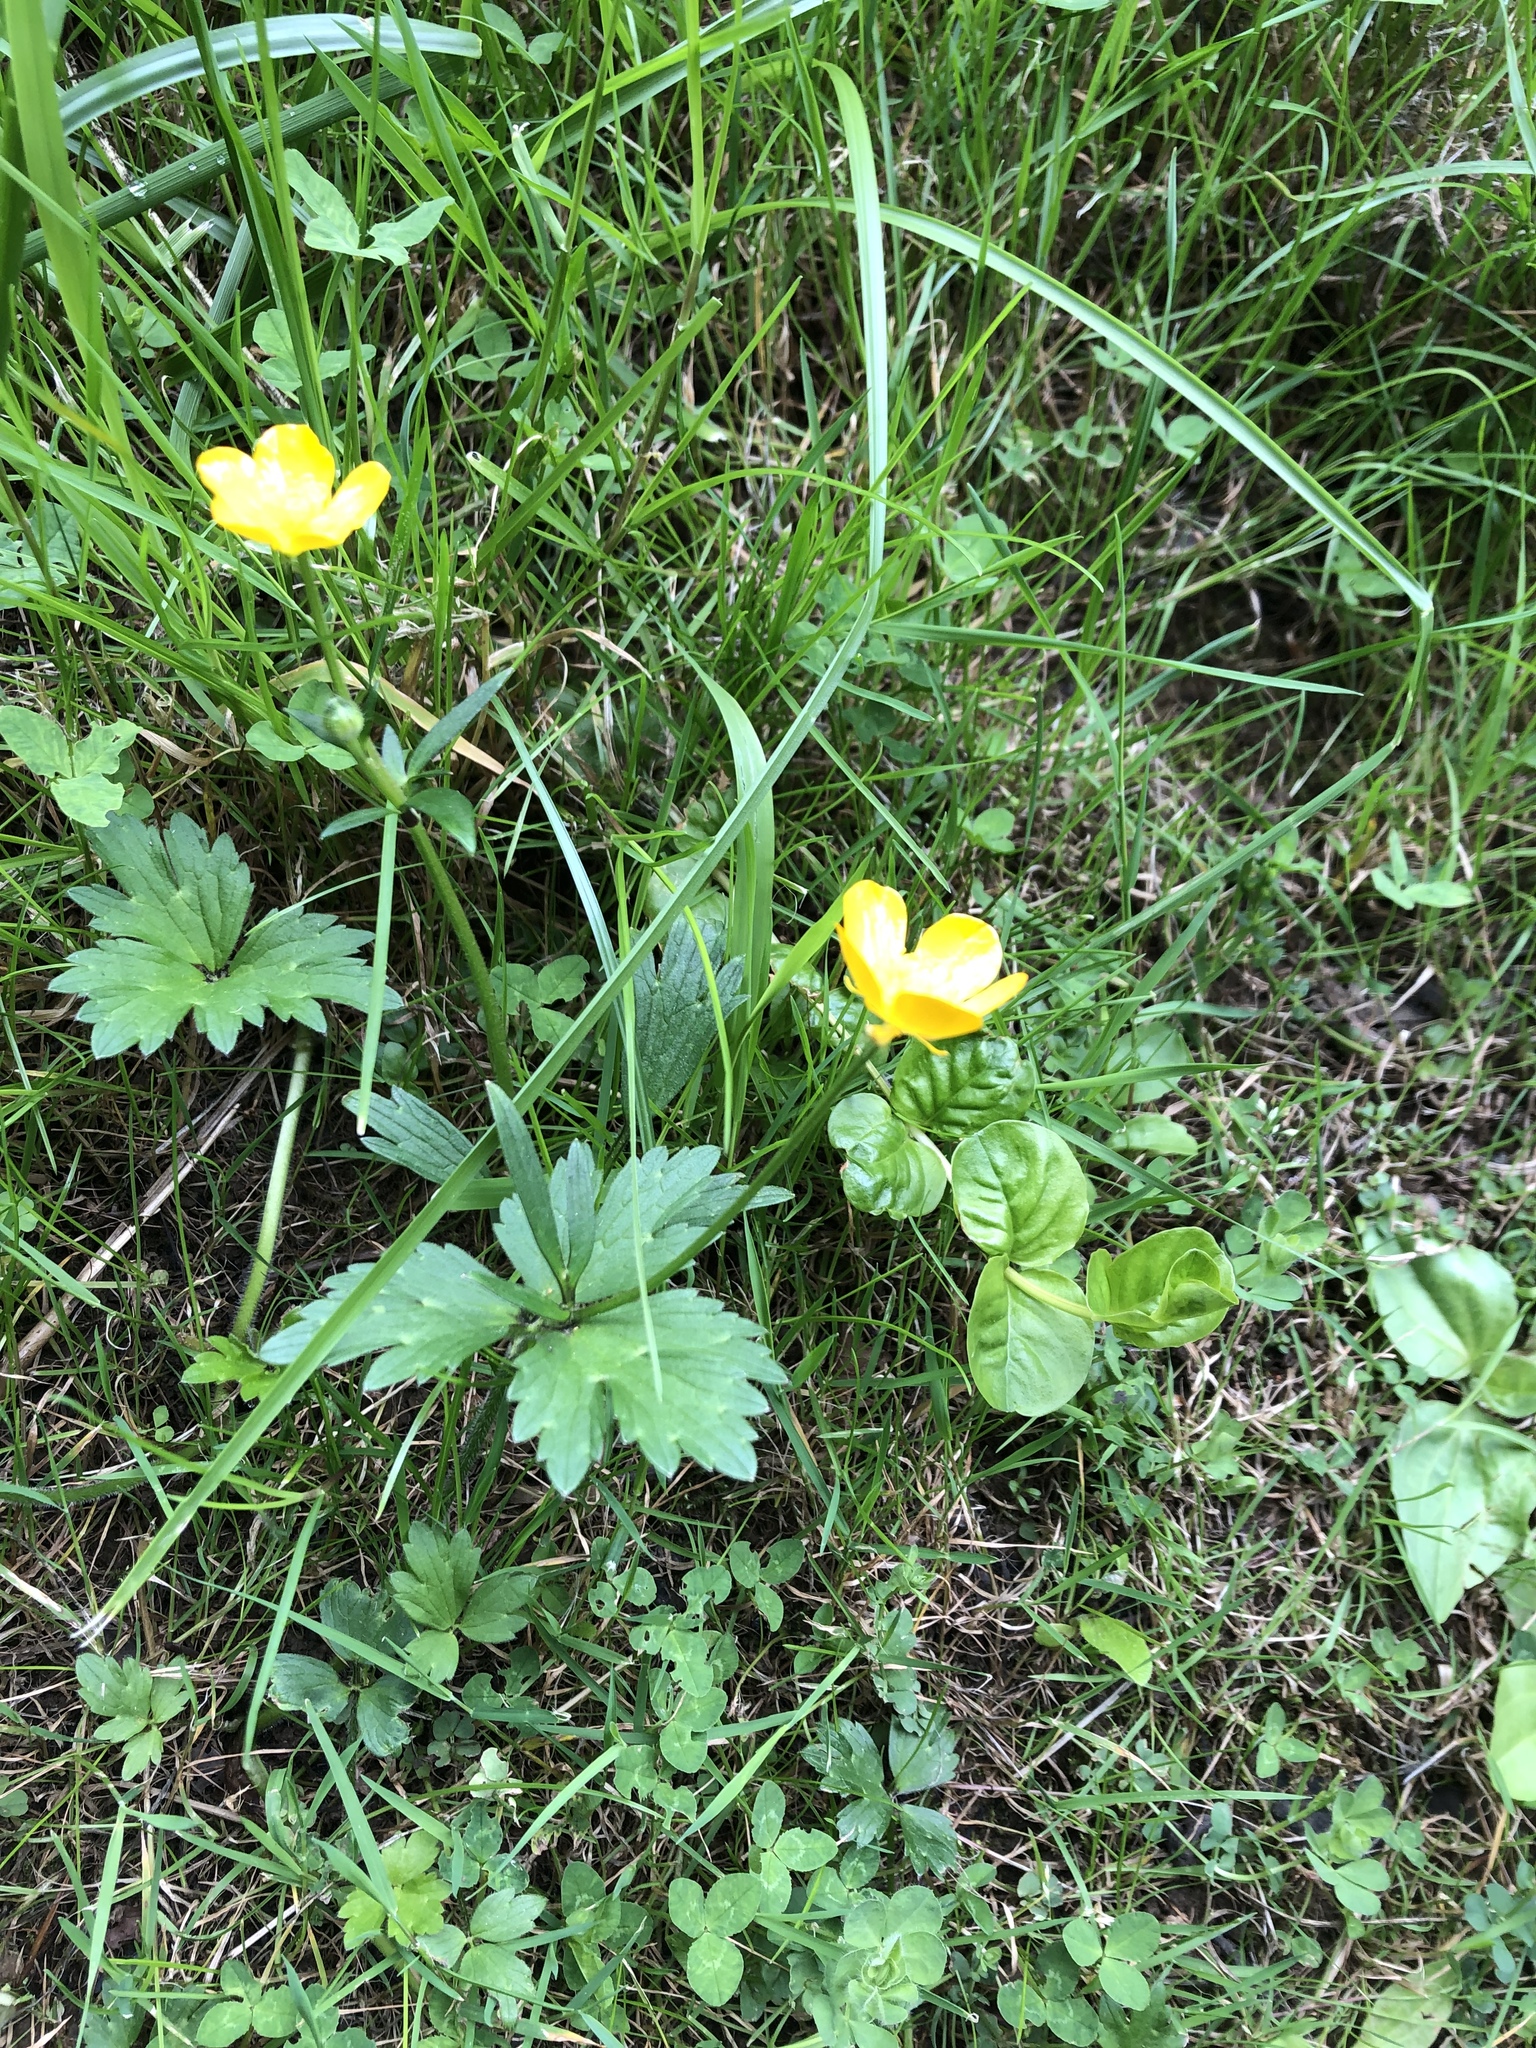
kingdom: Plantae
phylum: Tracheophyta
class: Magnoliopsida
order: Ranunculales
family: Ranunculaceae
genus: Ranunculus
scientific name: Ranunculus repens
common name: Creeping buttercup
